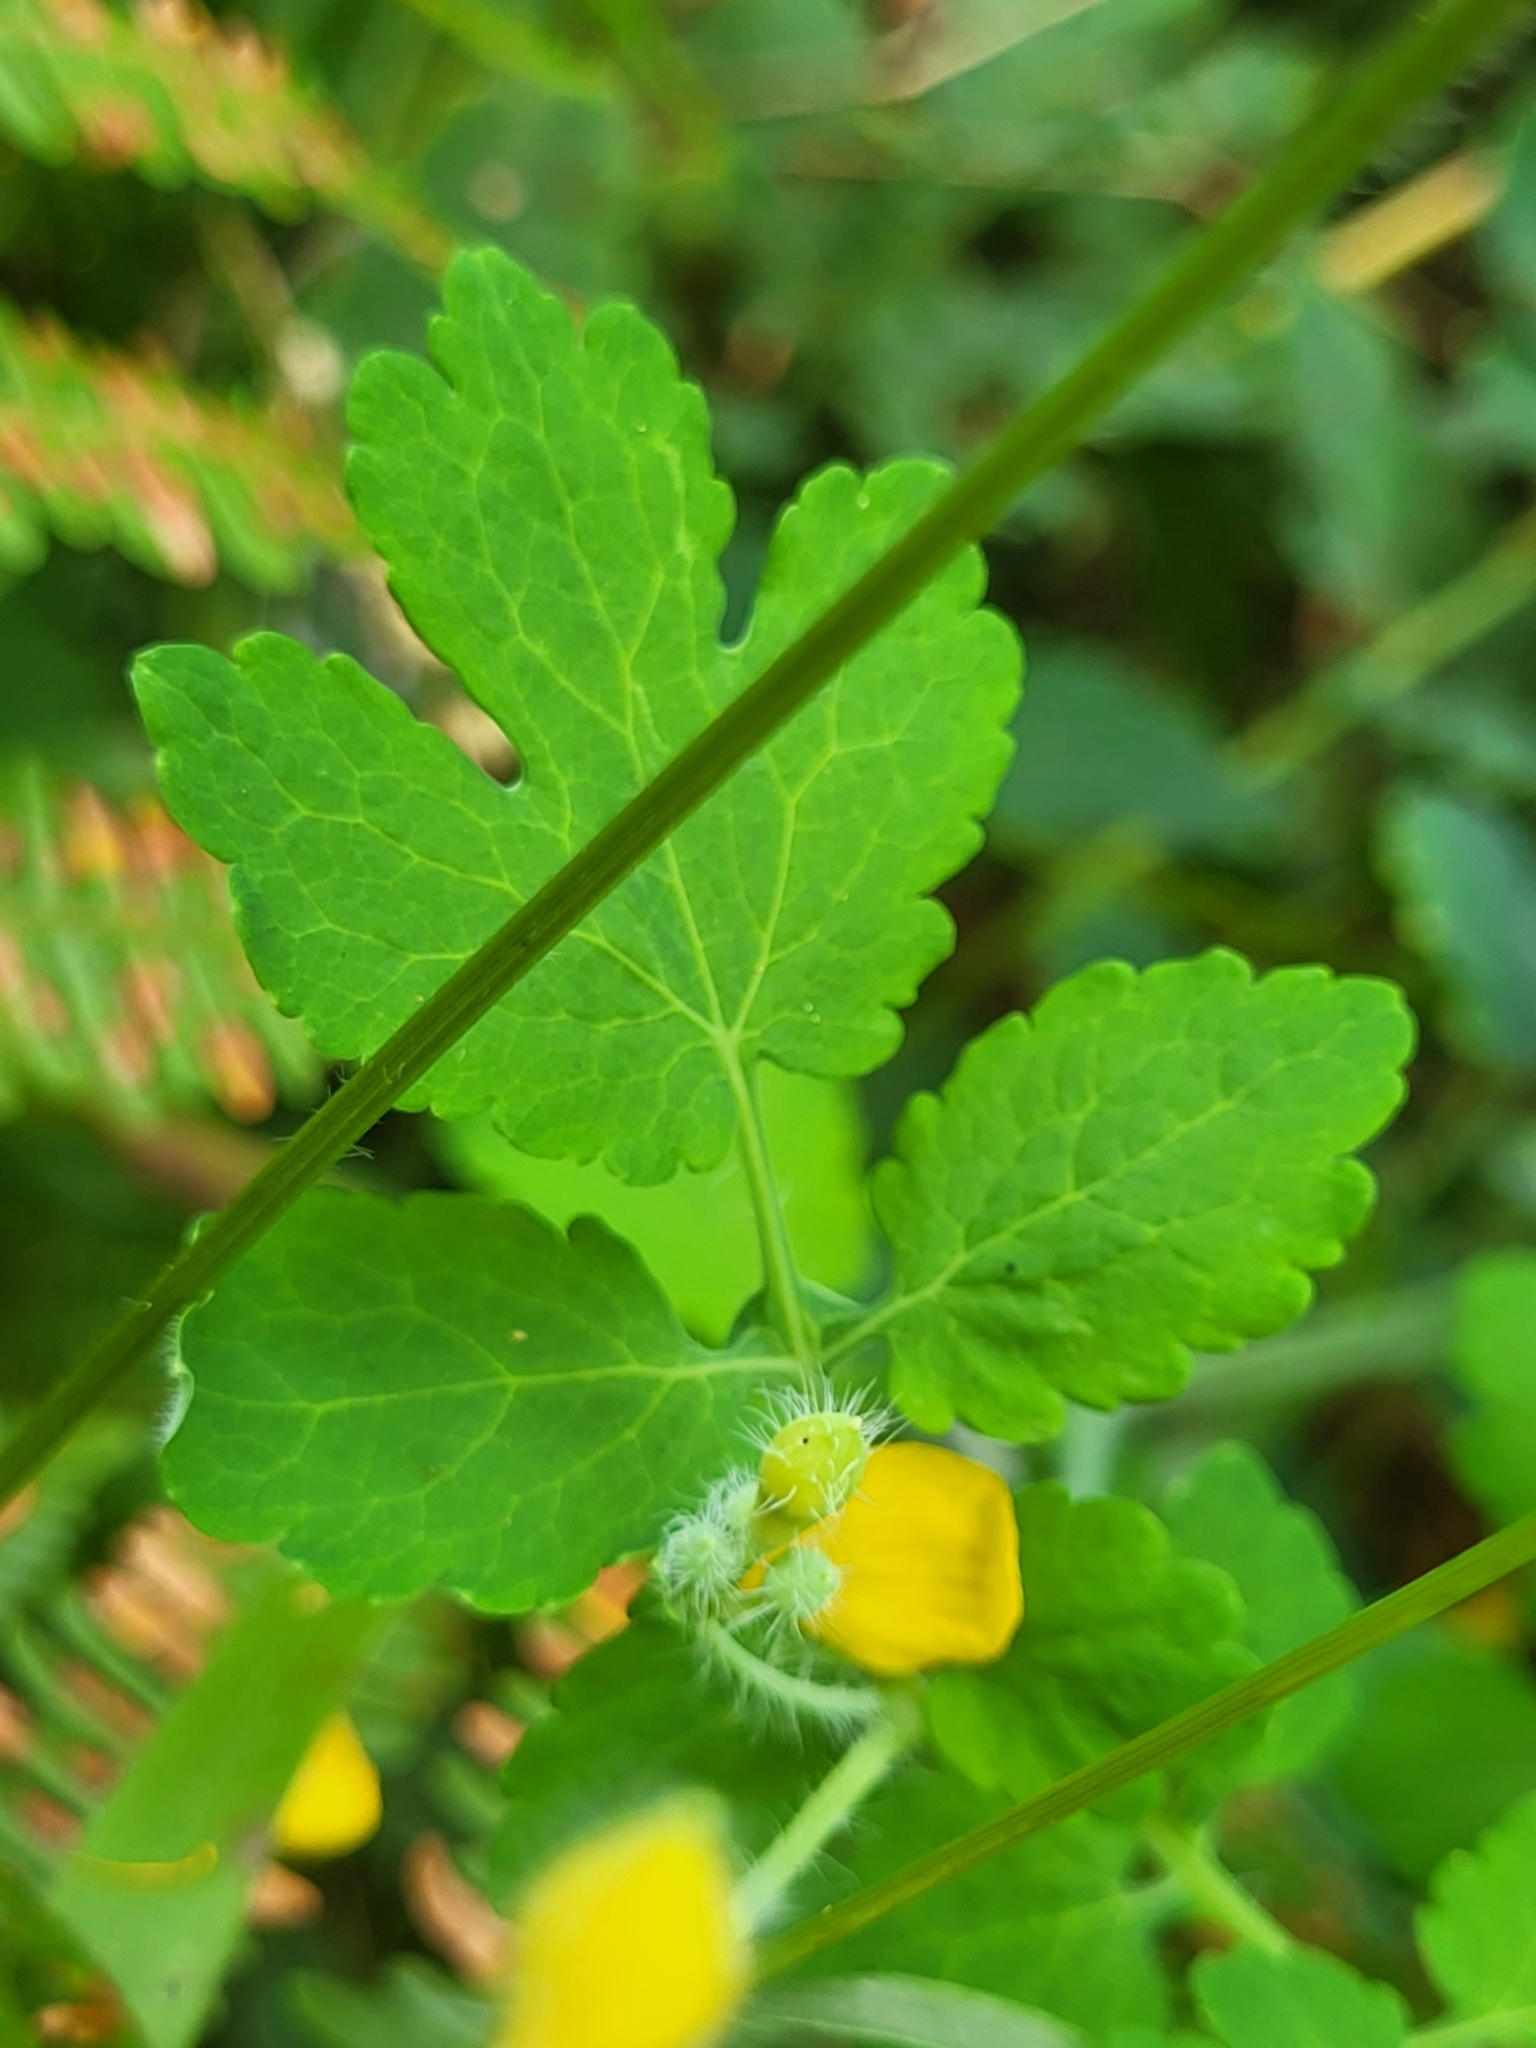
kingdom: Plantae
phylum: Tracheophyta
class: Magnoliopsida
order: Ranunculales
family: Papaveraceae
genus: Chelidonium
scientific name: Chelidonium majus
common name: Greater celandine
